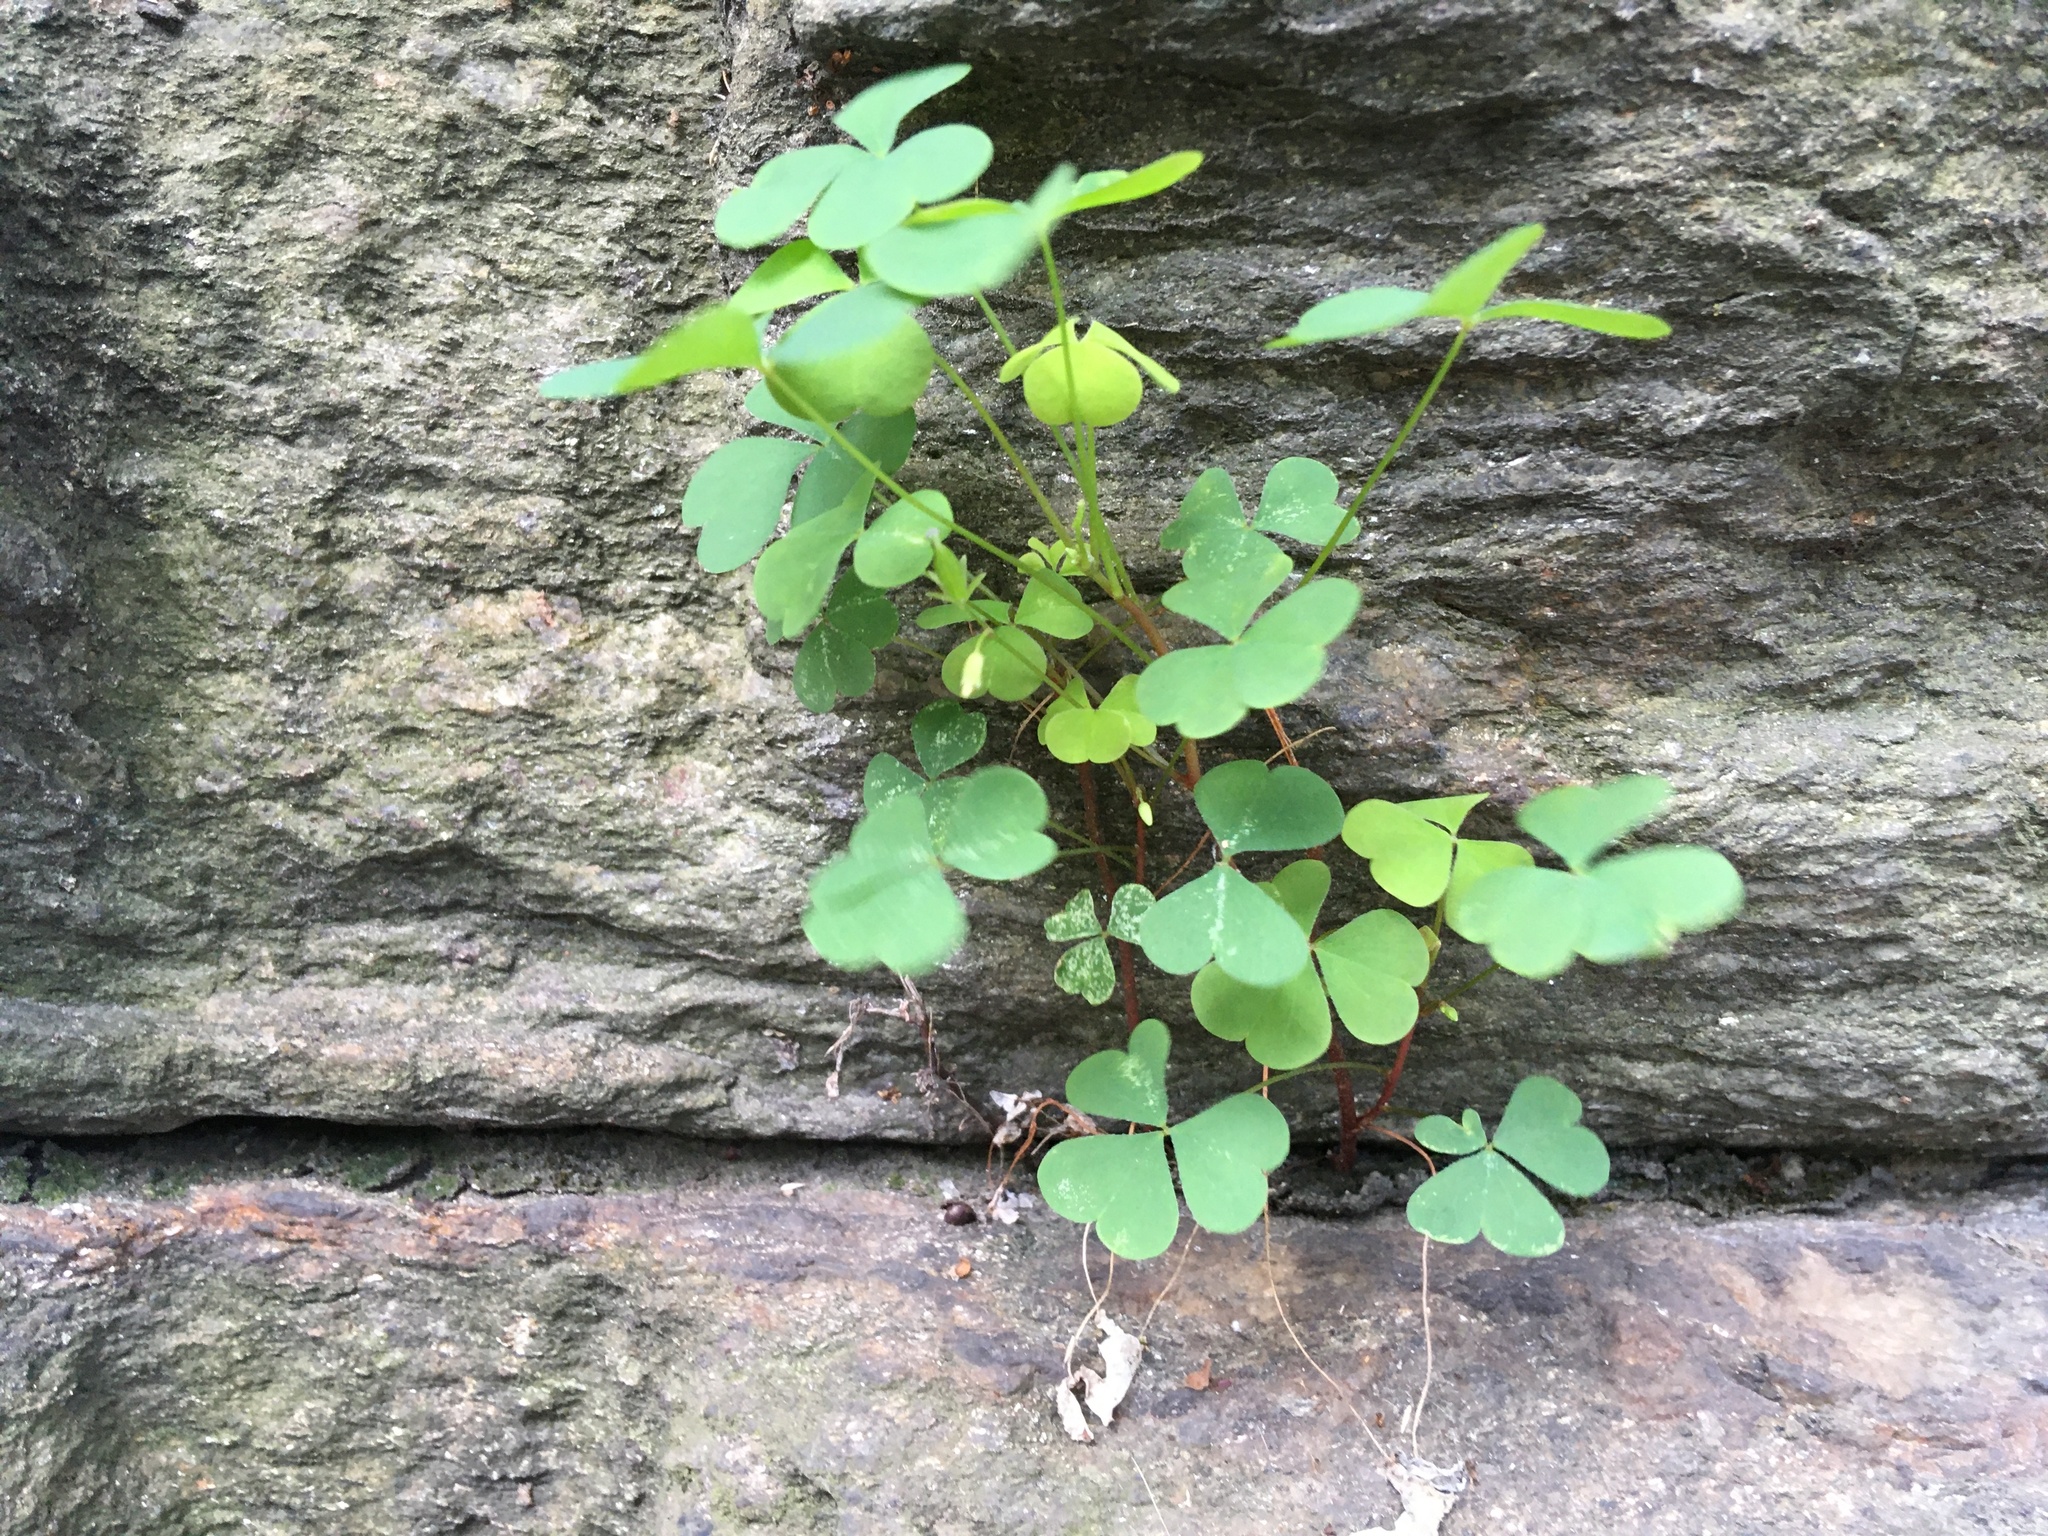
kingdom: Plantae
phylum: Tracheophyta
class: Magnoliopsida
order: Oxalidales
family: Oxalidaceae
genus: Oxalis
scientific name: Oxalis corniculata
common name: Procumbent yellow-sorrel
